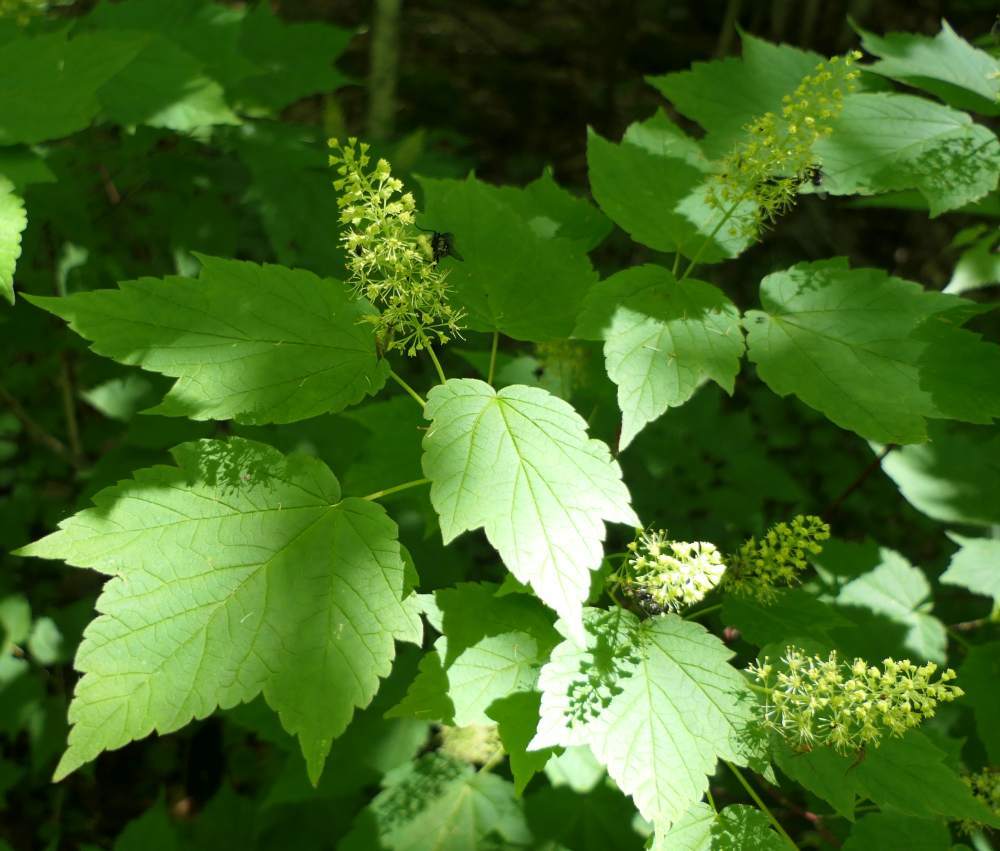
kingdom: Plantae
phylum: Tracheophyta
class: Magnoliopsida
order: Sapindales
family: Sapindaceae
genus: Acer
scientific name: Acer spicatum
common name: Mountain maple
